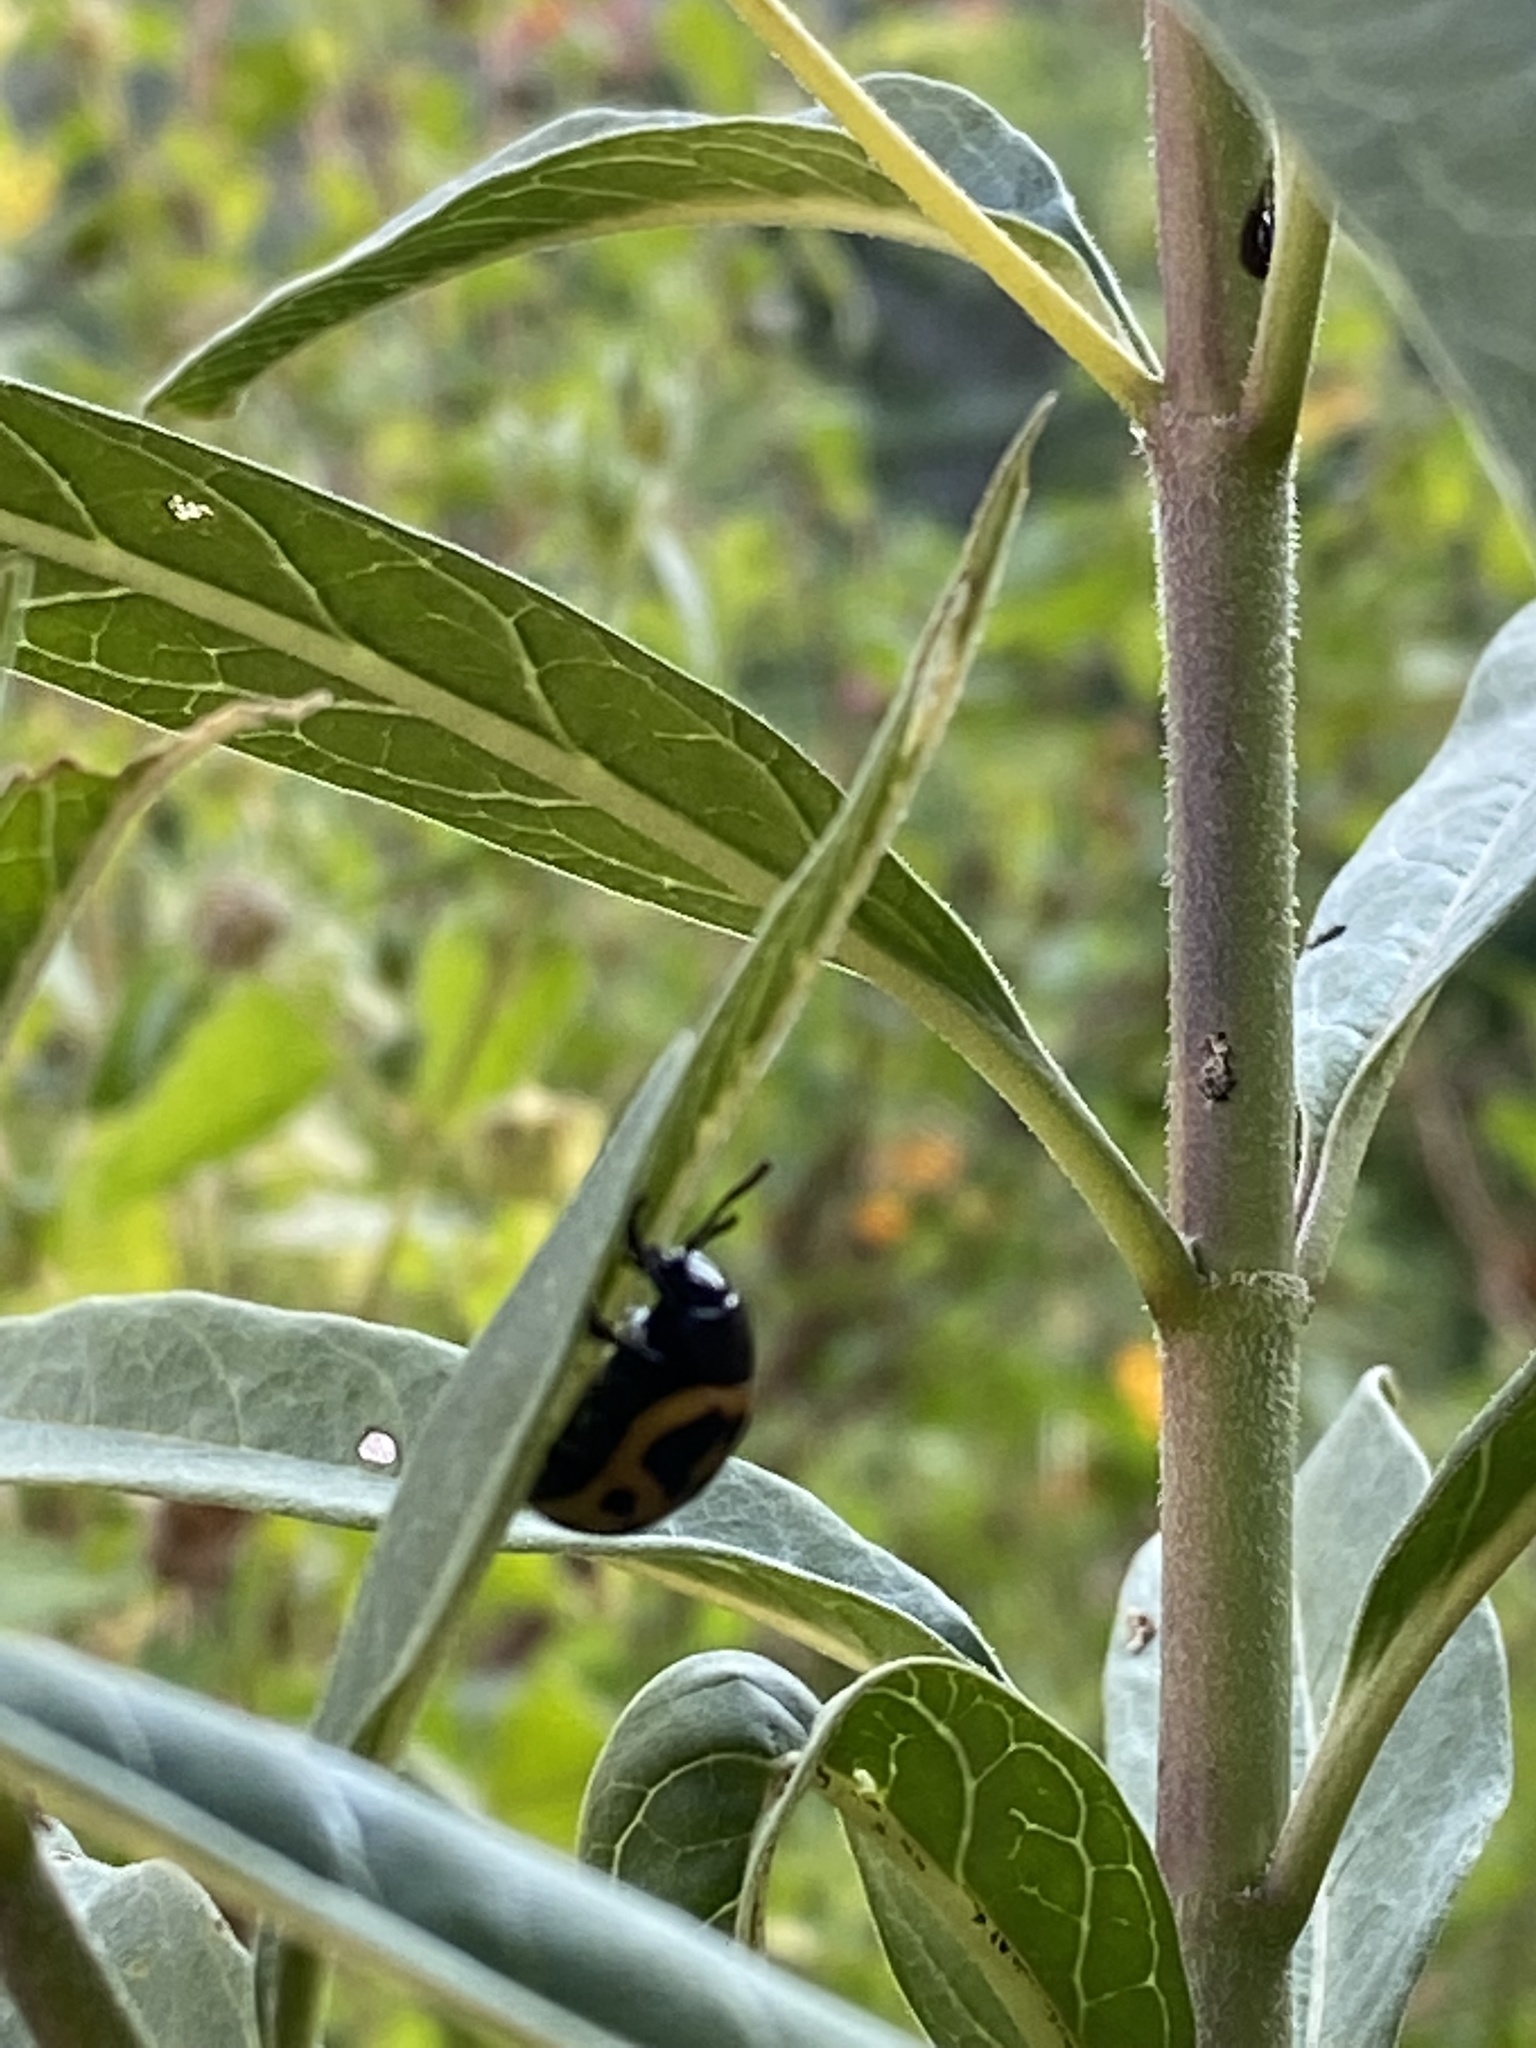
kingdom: Animalia
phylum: Arthropoda
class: Insecta
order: Coleoptera
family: Chrysomelidae
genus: Labidomera
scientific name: Labidomera clivicollis
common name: Swamp milkweed leaf beetle
